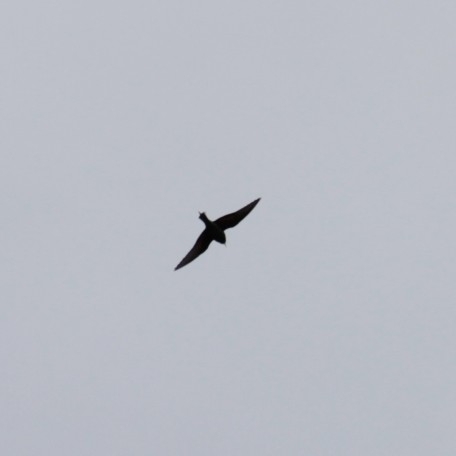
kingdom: Animalia
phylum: Chordata
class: Aves
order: Coraciiformes
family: Meropidae
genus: Merops
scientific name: Merops apiaster
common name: European bee-eater
